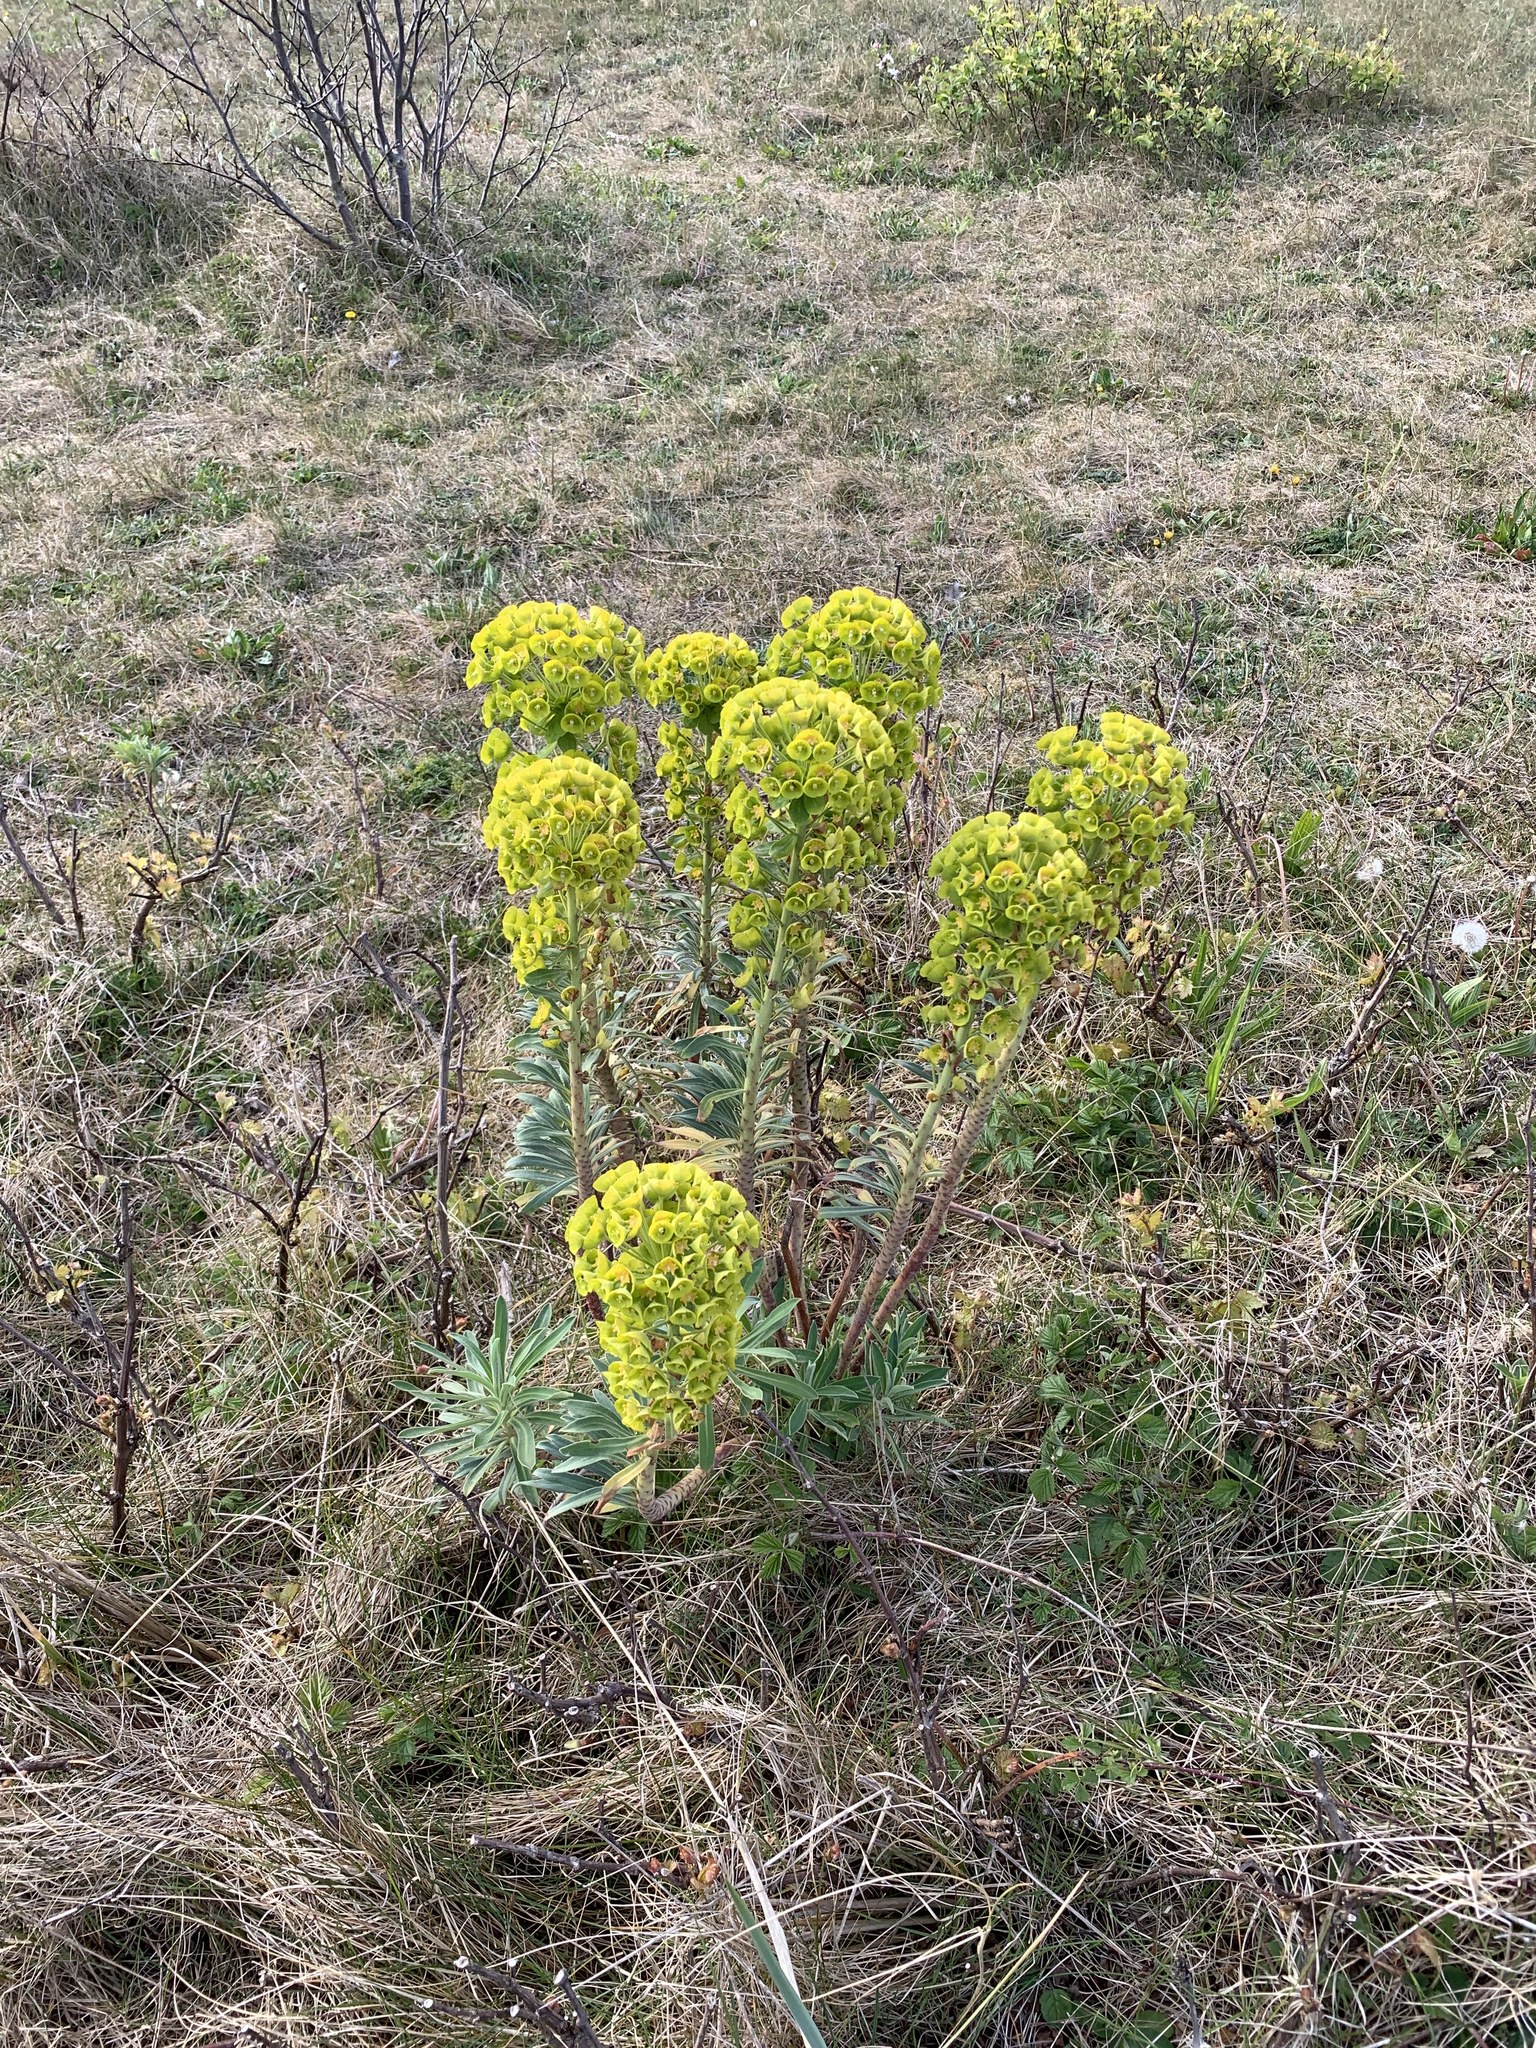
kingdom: Plantae
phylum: Tracheophyta
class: Magnoliopsida
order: Malpighiales
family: Euphorbiaceae
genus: Euphorbia
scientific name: Euphorbia characias
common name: Mediterranean spurge
